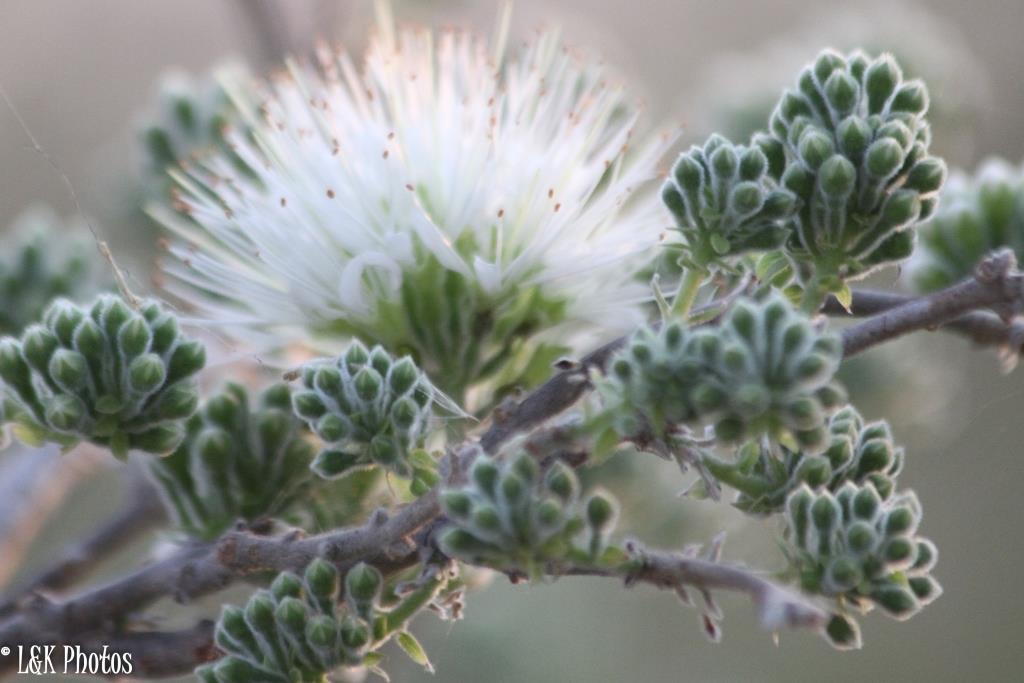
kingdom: Plantae
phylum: Tracheophyta
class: Magnoliopsida
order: Myrtales
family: Combretaceae
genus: Combretum
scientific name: Combretum mossambicense
